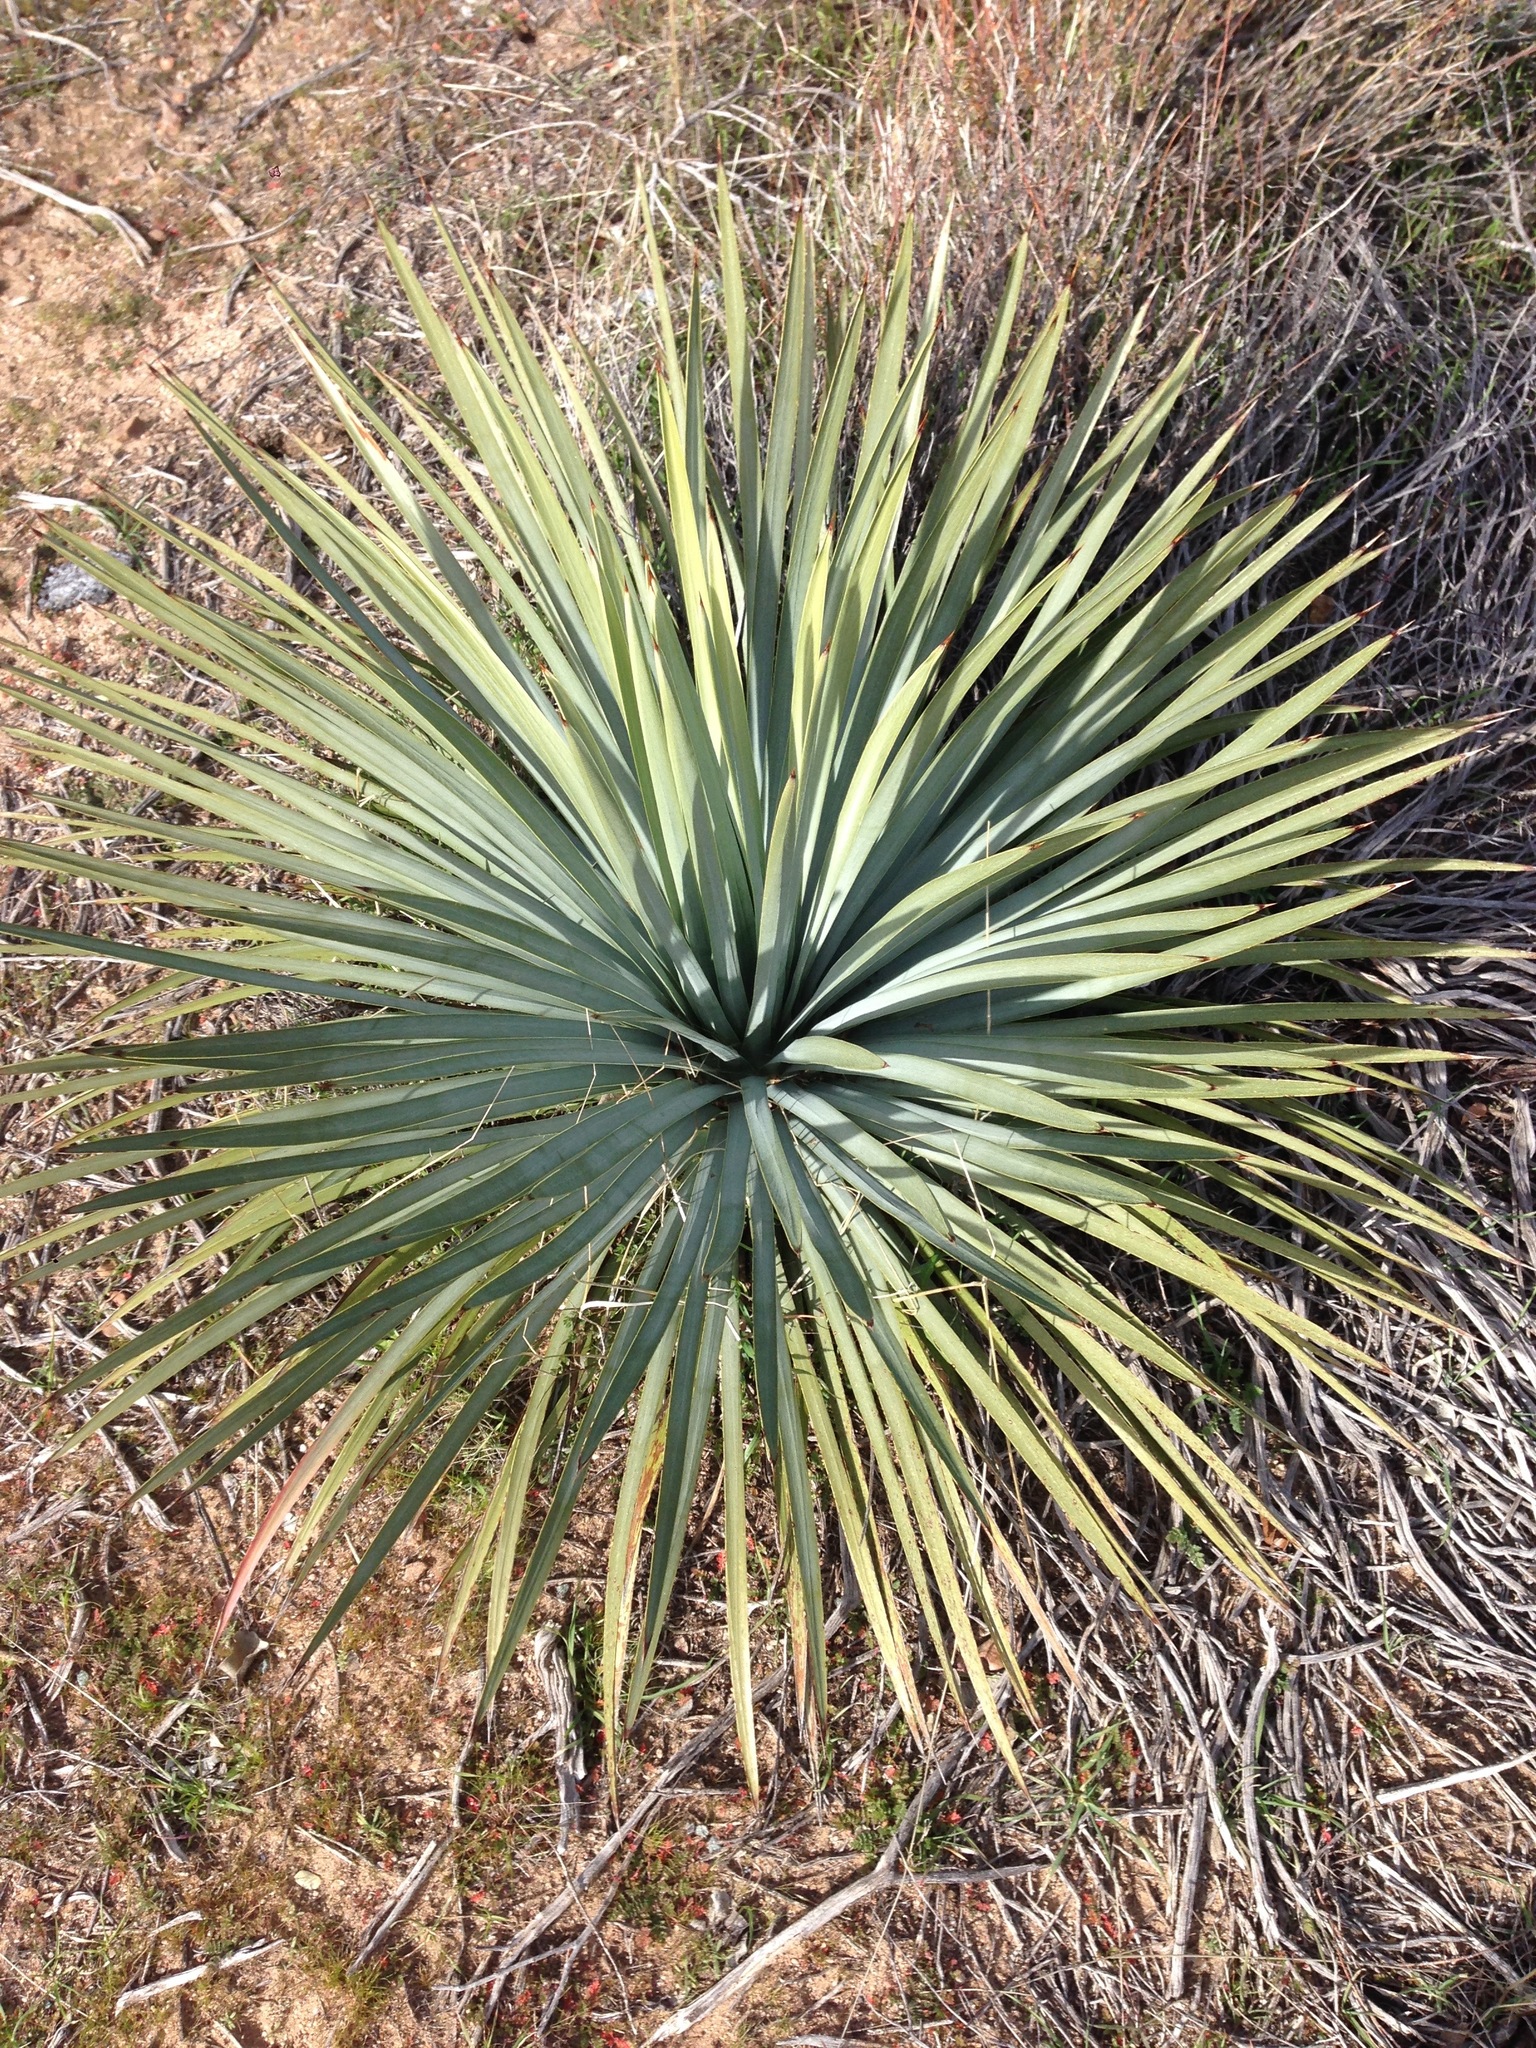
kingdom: Plantae
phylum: Tracheophyta
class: Liliopsida
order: Asparagales
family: Asparagaceae
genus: Hesperoyucca
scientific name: Hesperoyucca whipplei
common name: Our lord's-candle
